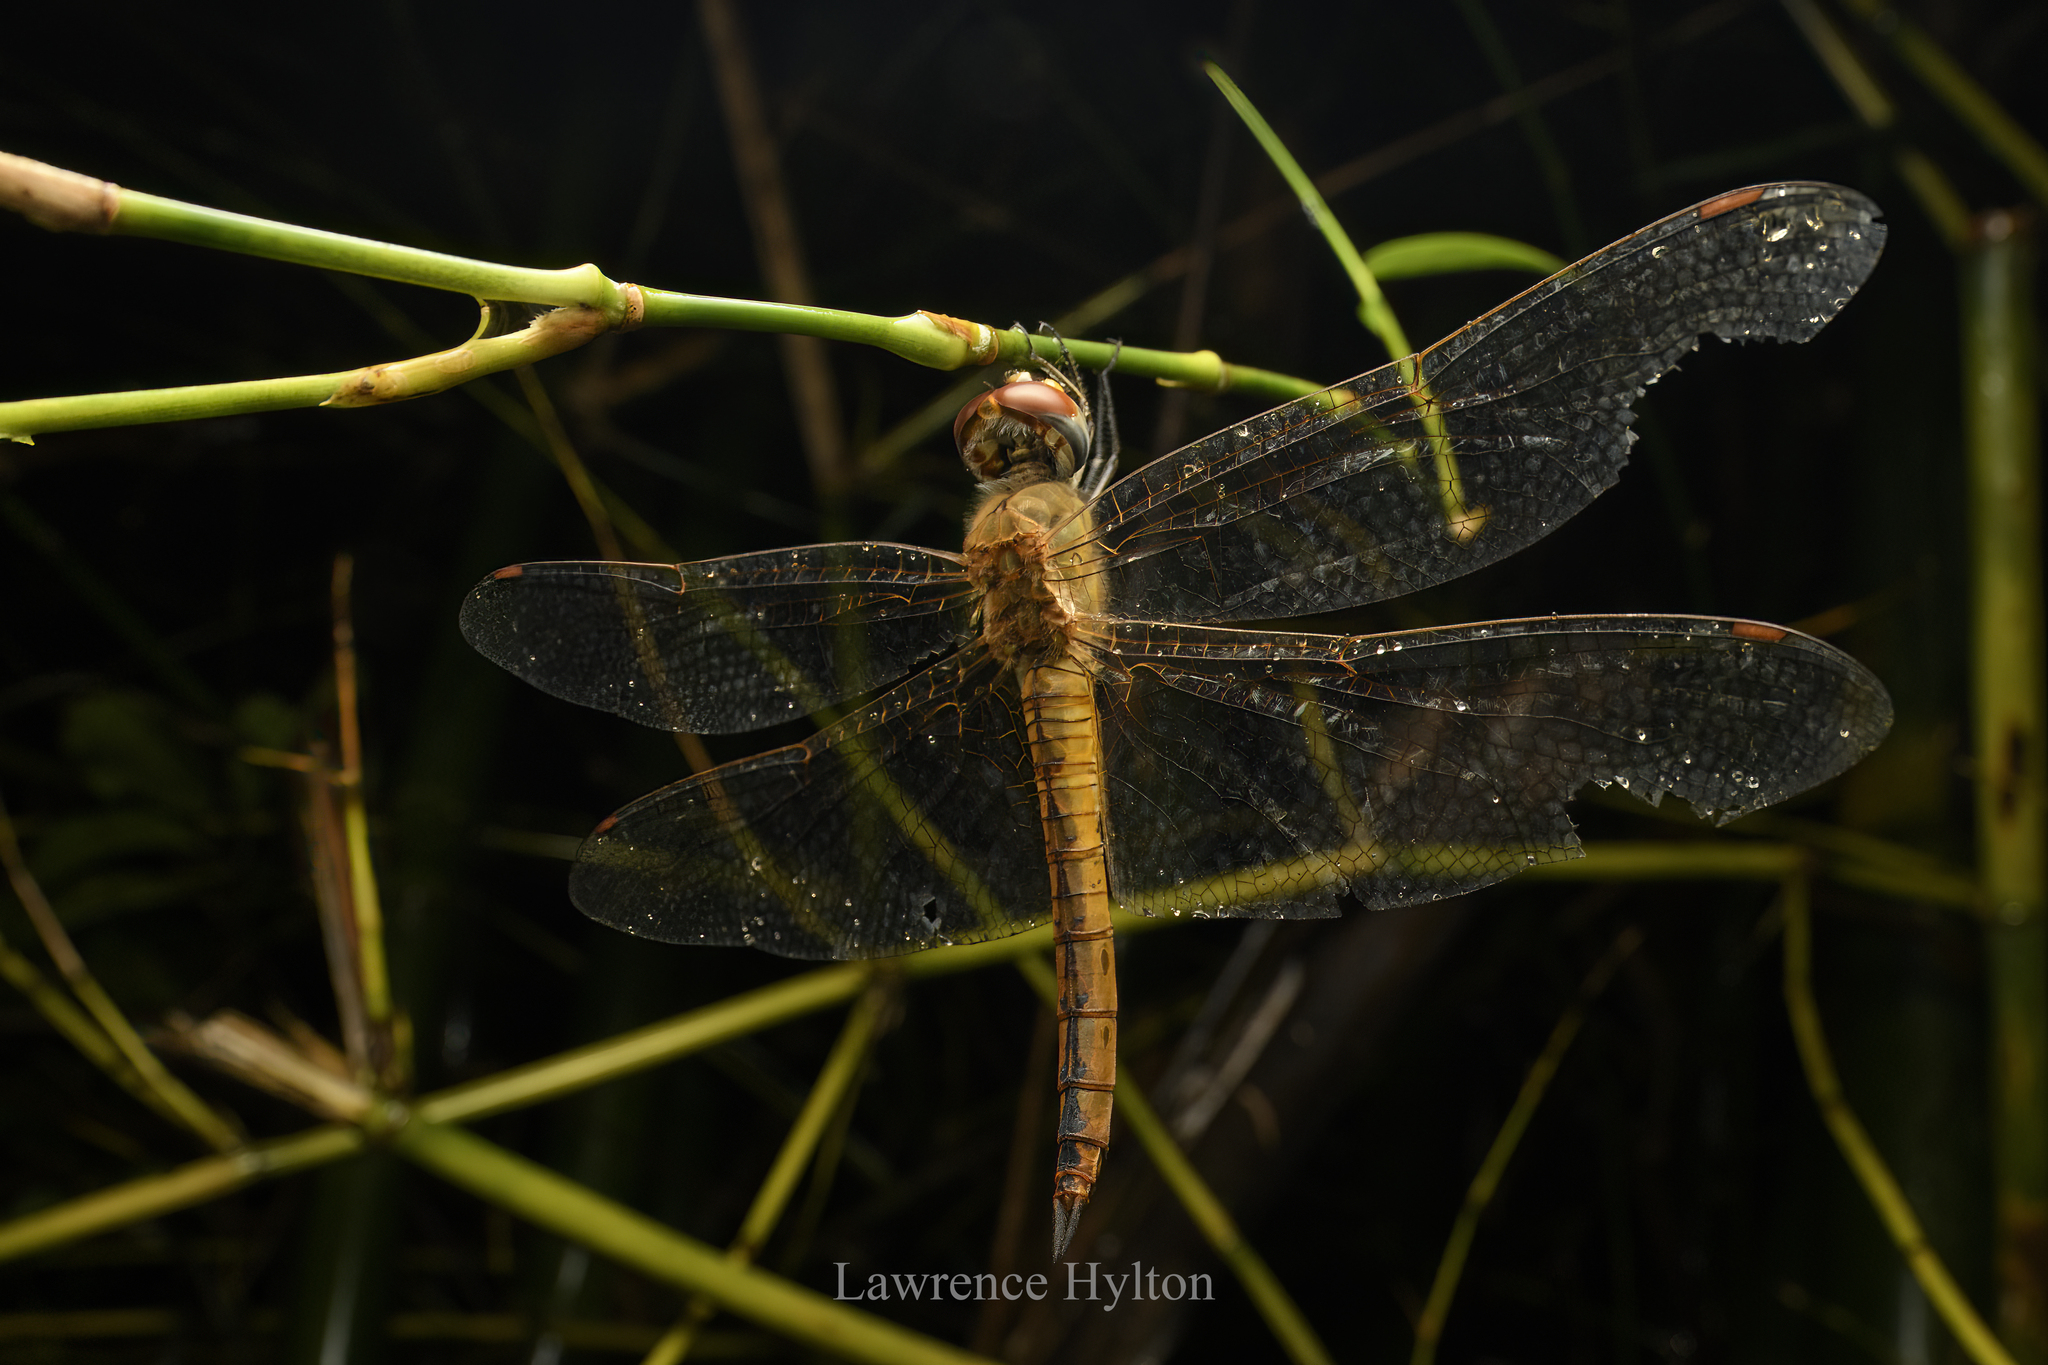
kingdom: Animalia
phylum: Arthropoda
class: Insecta
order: Odonata
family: Libellulidae
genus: Pantala
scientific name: Pantala flavescens
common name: Wandering glider
